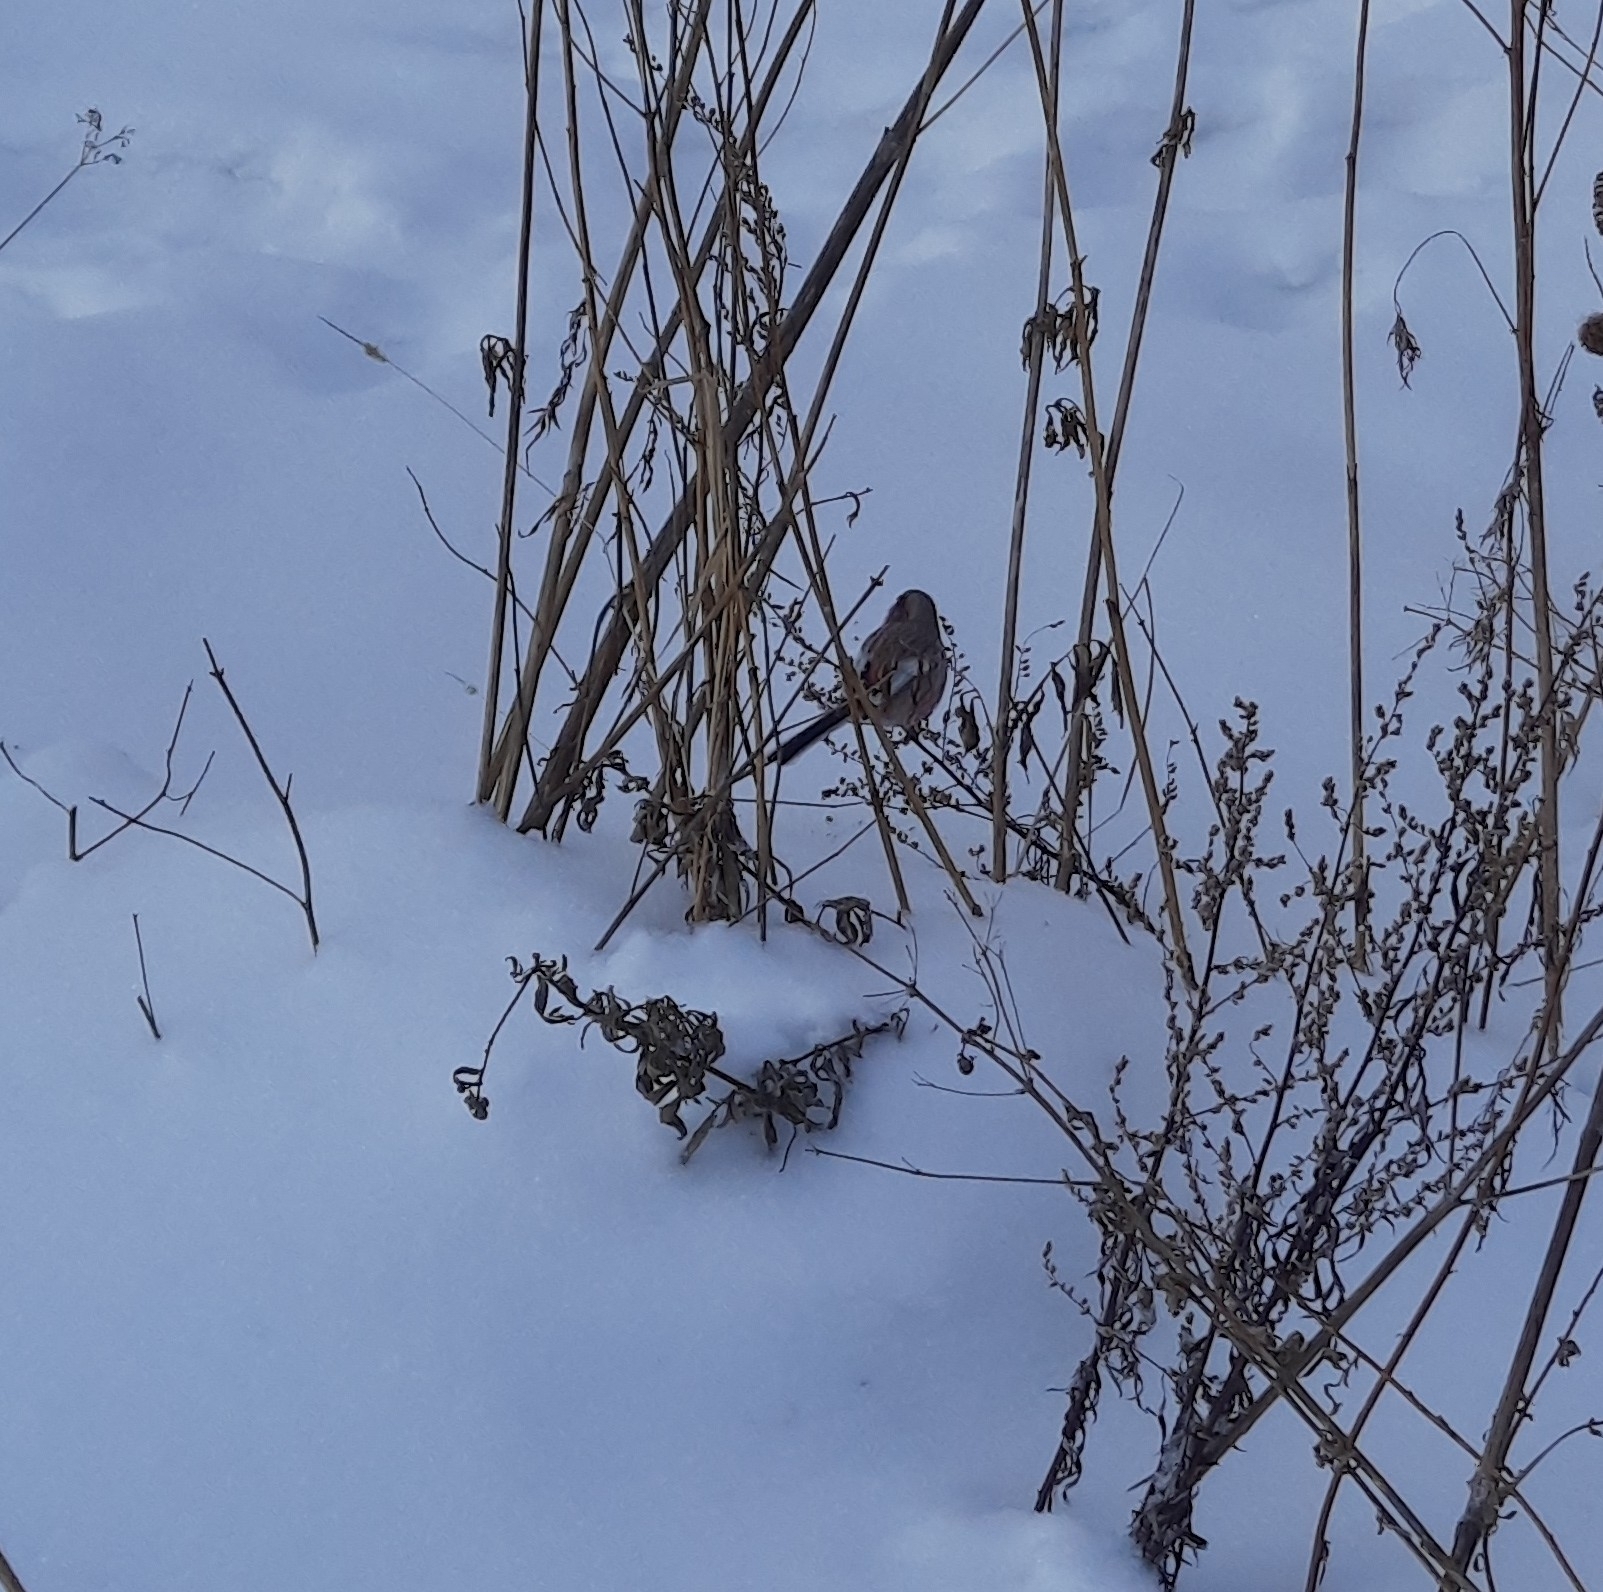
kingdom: Animalia
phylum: Chordata
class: Aves
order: Passeriformes
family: Fringillidae
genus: Carpodacus
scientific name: Carpodacus sibiricus
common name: Long-tailed rosefinch
